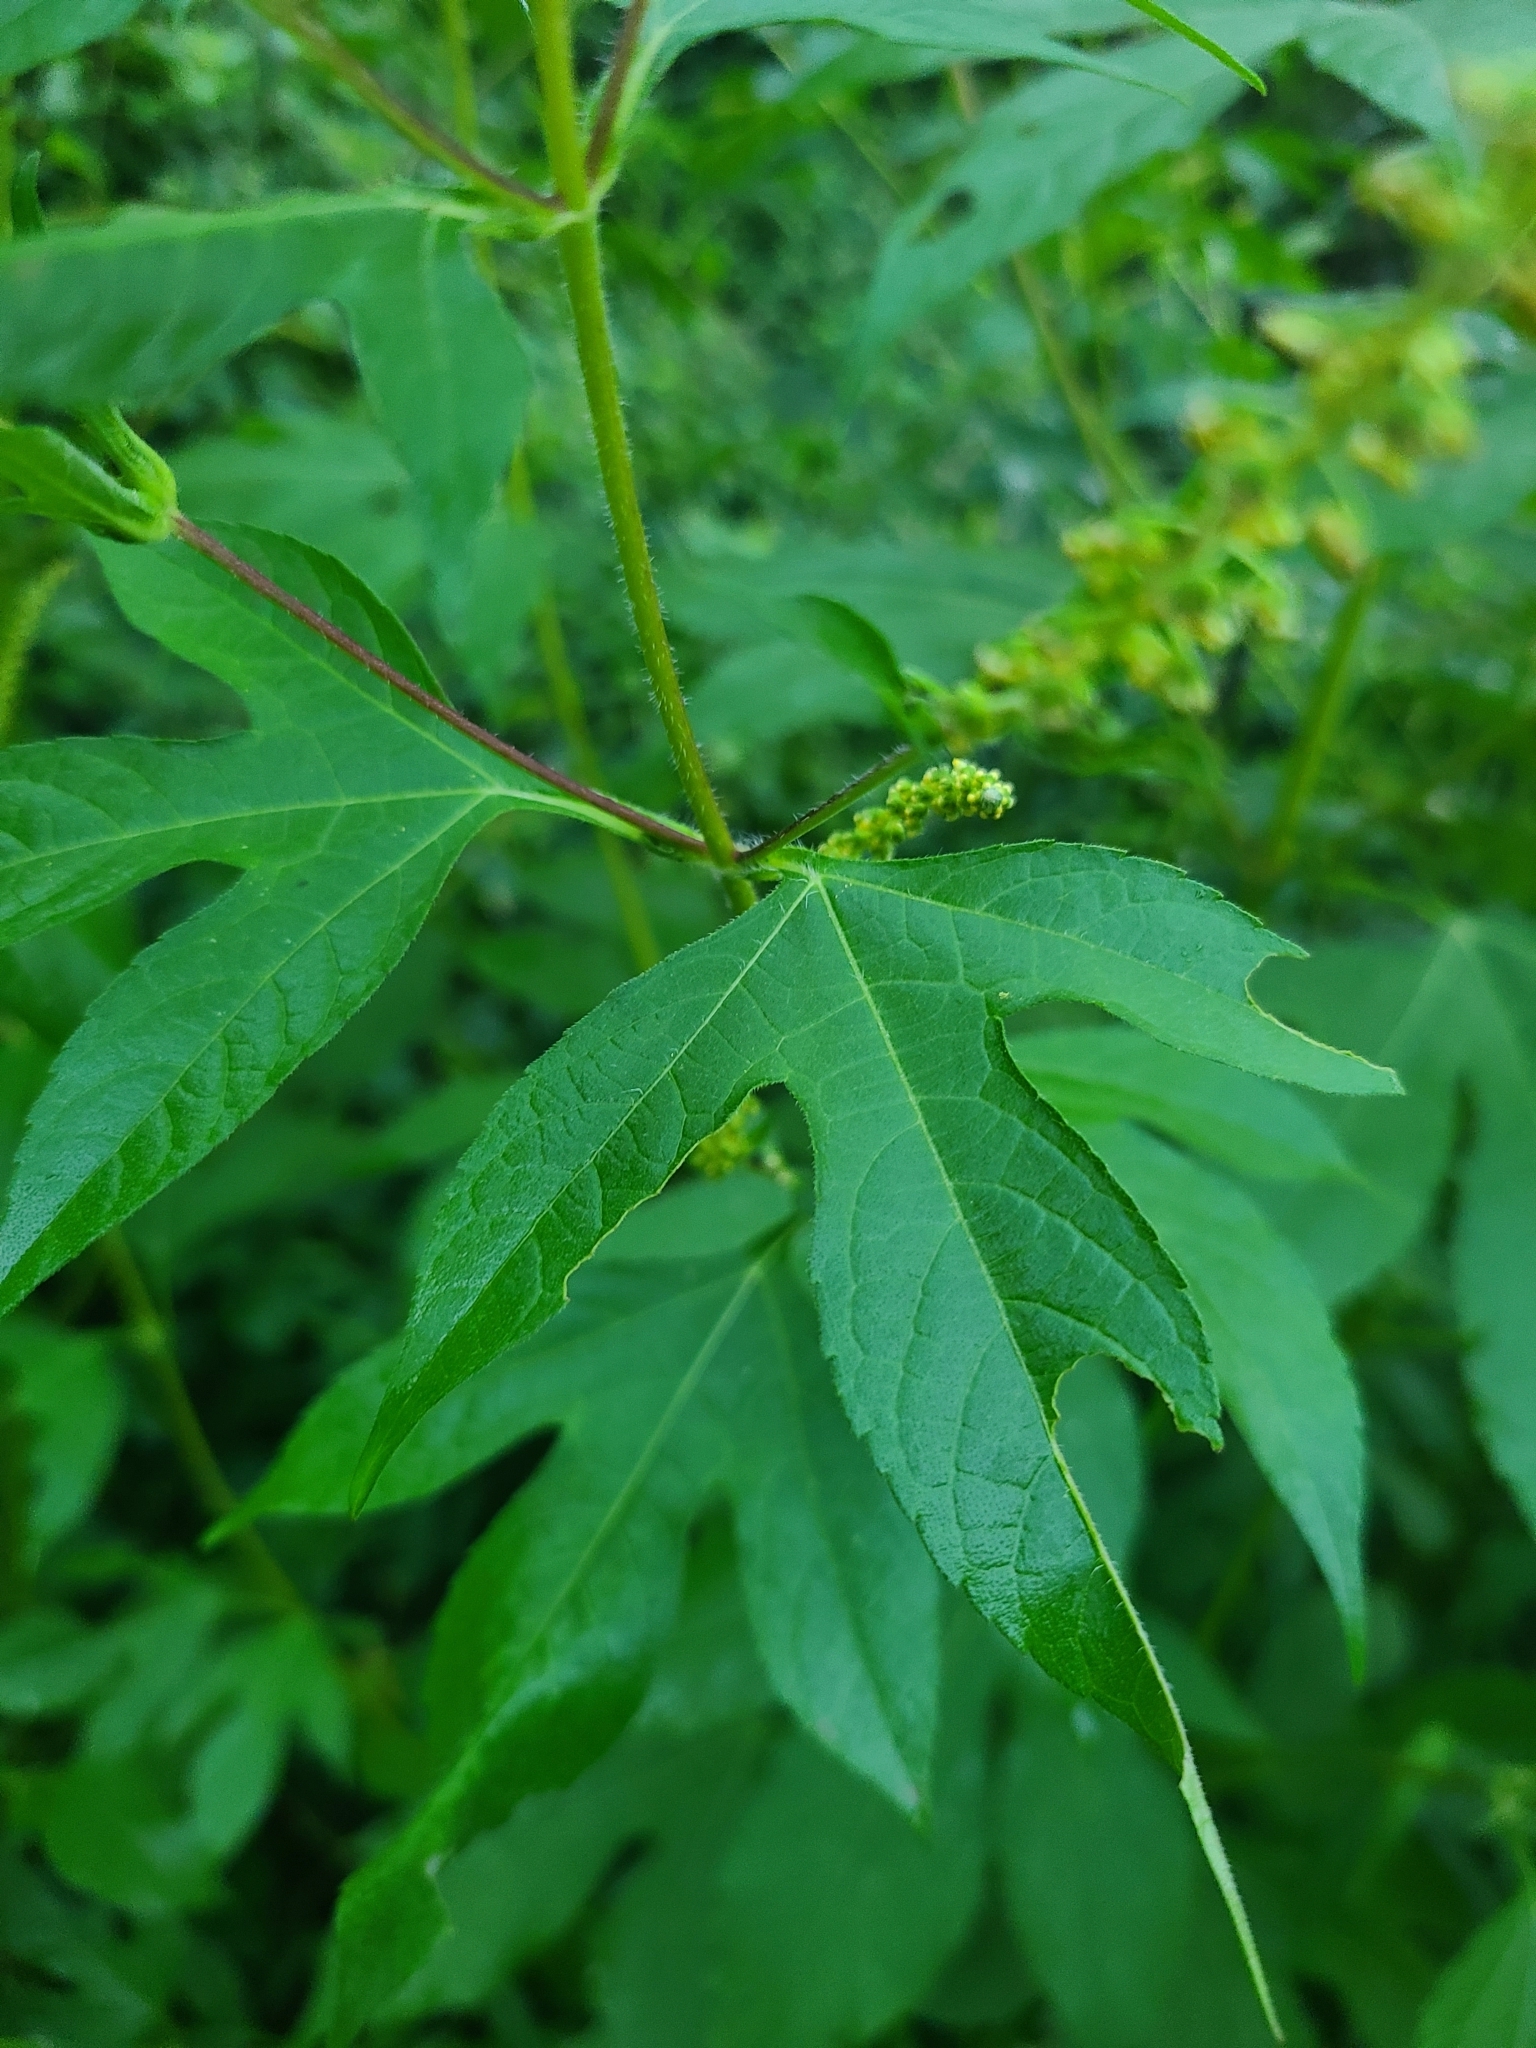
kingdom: Plantae
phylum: Tracheophyta
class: Magnoliopsida
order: Asterales
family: Asteraceae
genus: Ambrosia
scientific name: Ambrosia trifida
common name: Giant ragweed
